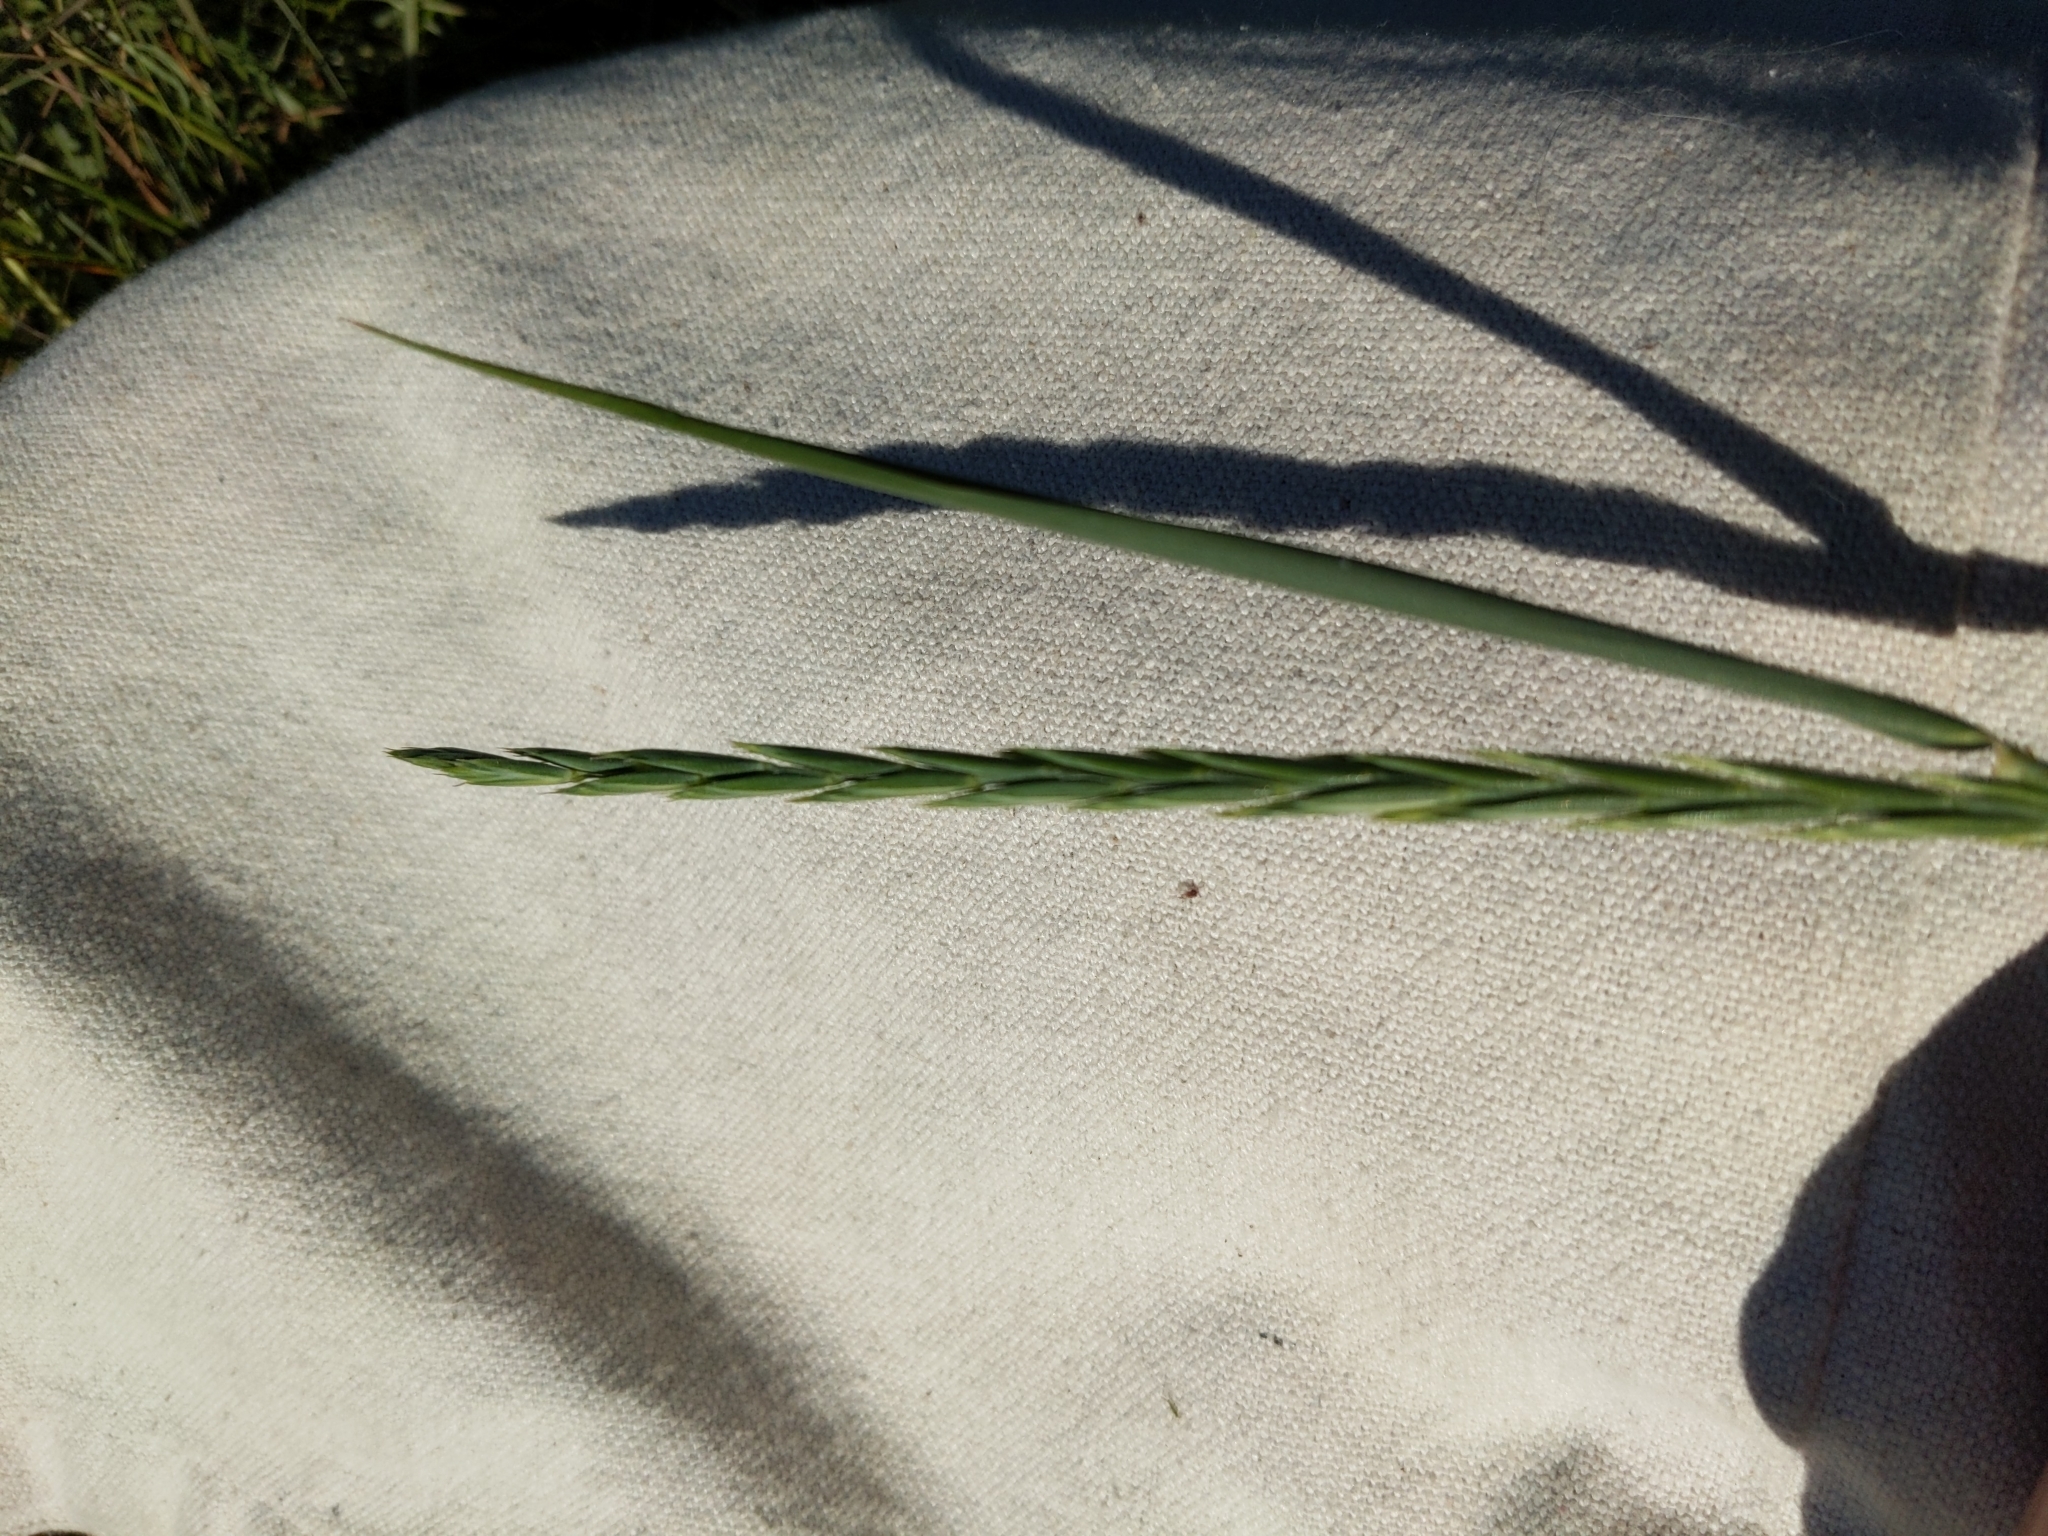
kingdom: Plantae
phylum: Tracheophyta
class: Liliopsida
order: Poales
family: Poaceae
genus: Elymus
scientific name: Elymus repens
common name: Quackgrass
